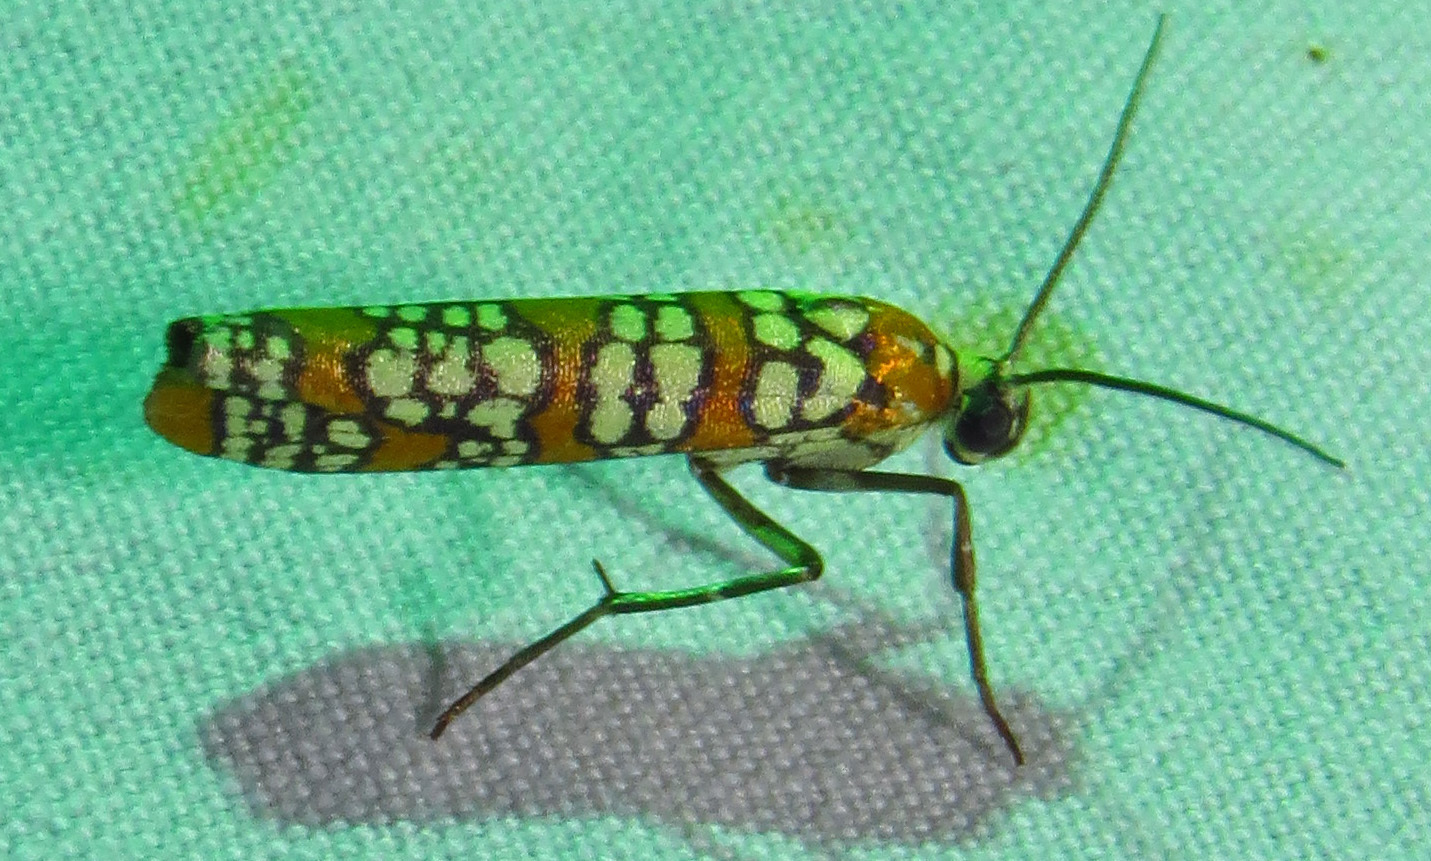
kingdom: Animalia
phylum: Arthropoda
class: Insecta
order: Lepidoptera
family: Attevidae
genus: Atteva
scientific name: Atteva punctella
